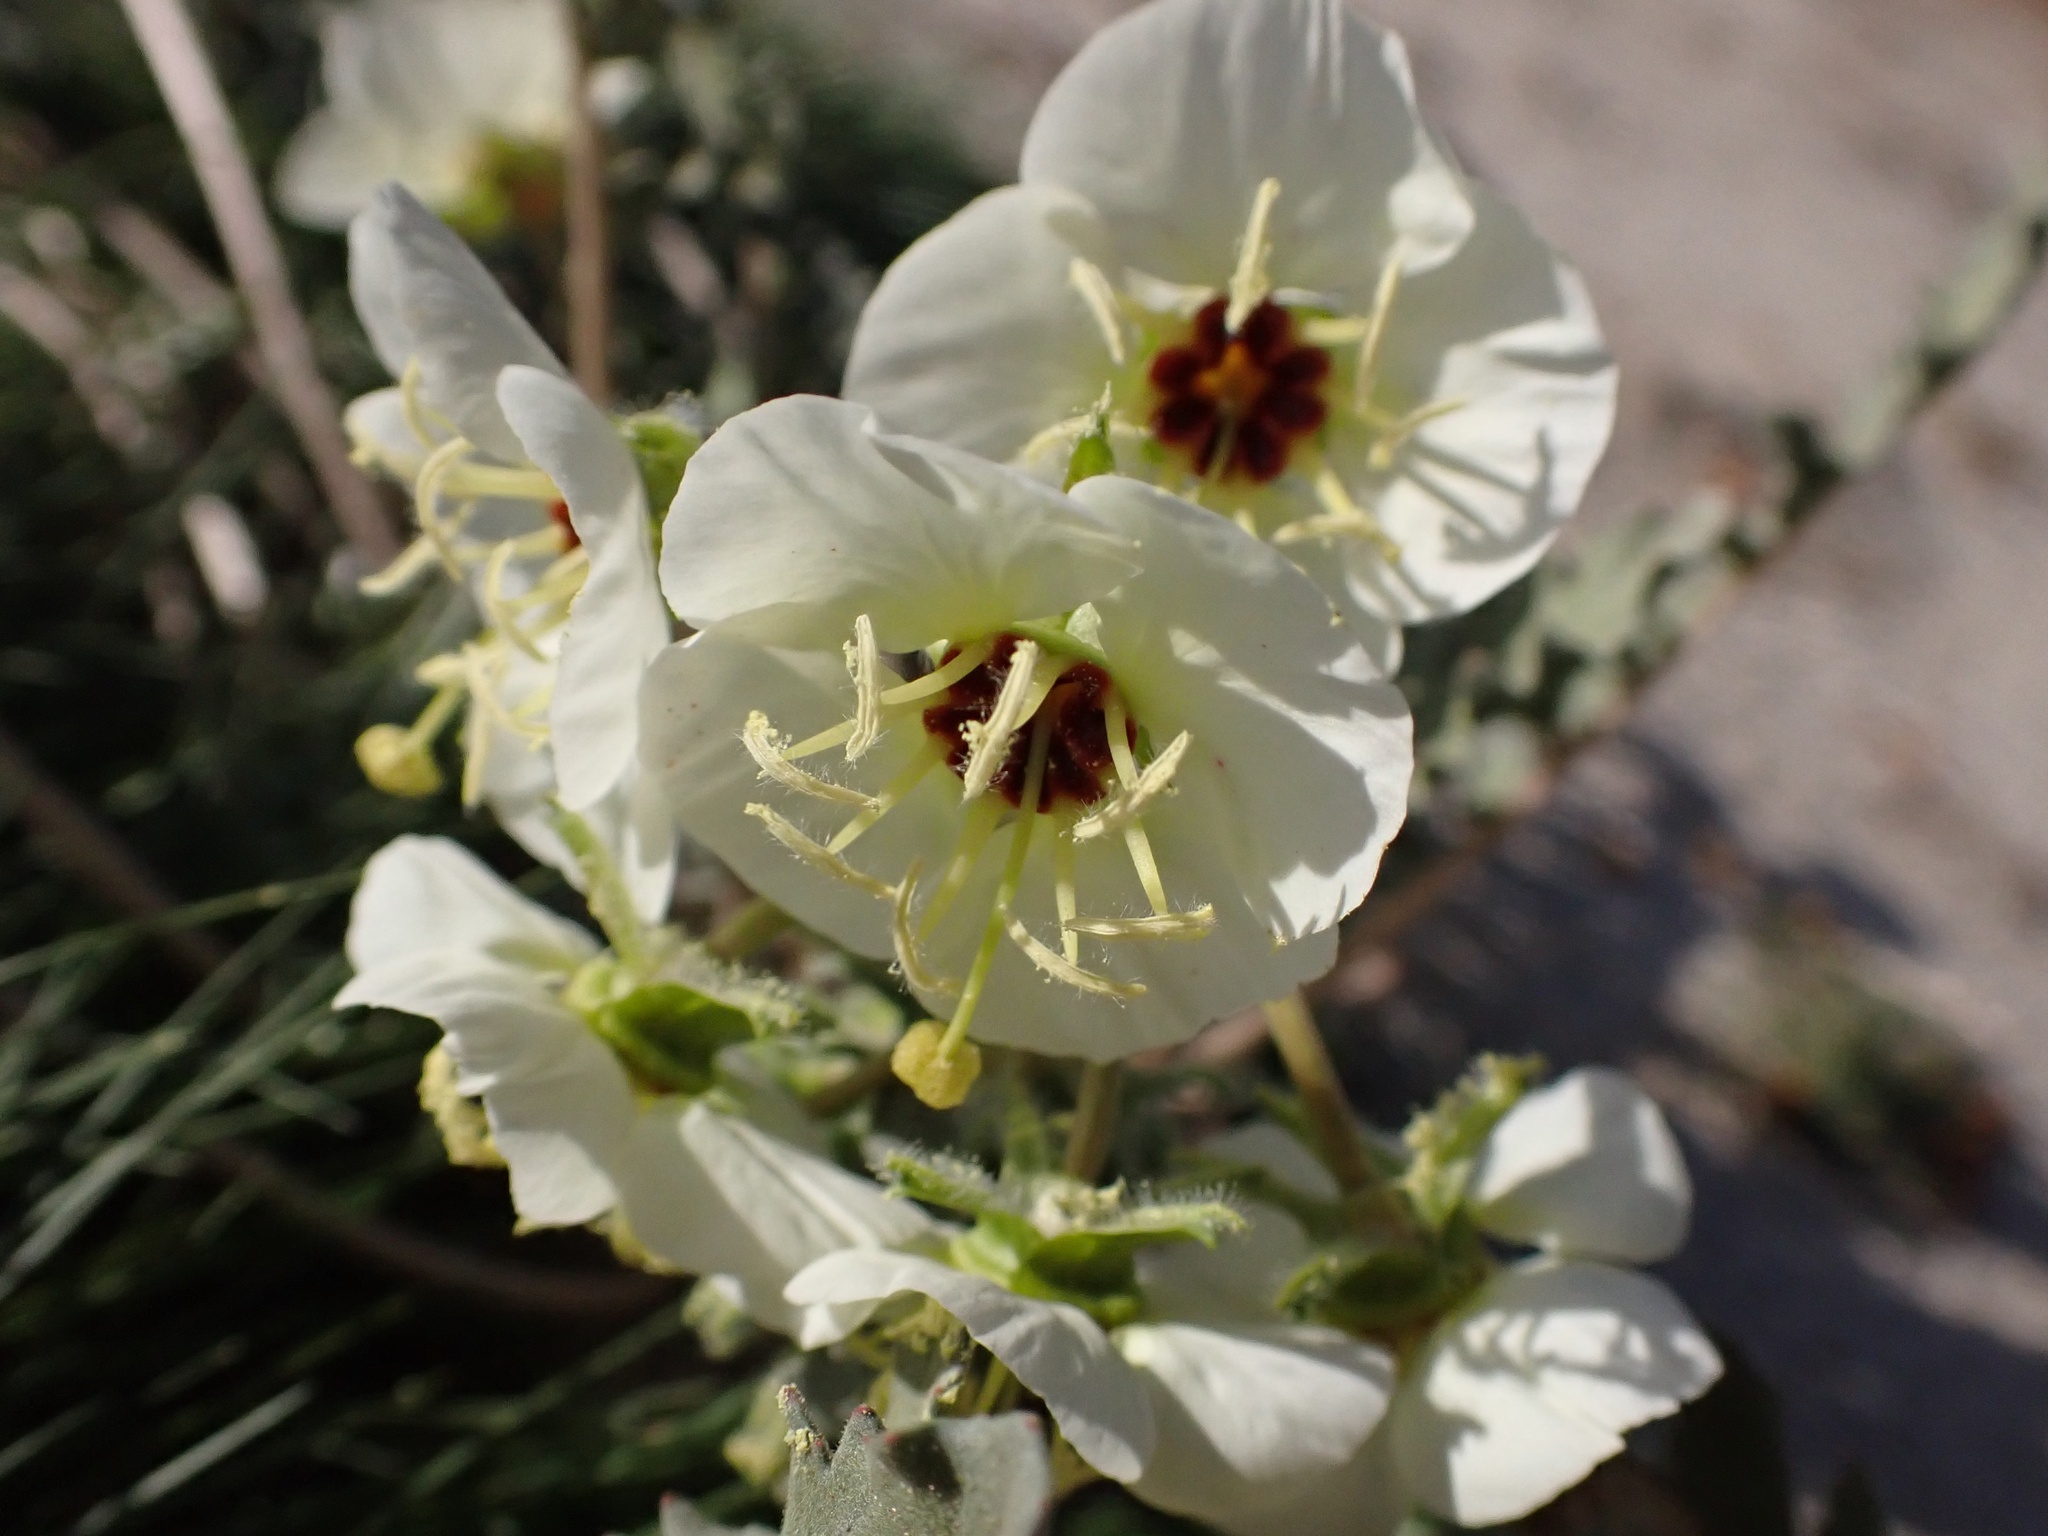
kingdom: Plantae
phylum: Tracheophyta
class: Magnoliopsida
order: Myrtales
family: Onagraceae
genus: Chylismia
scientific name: Chylismia claviformis
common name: Browneyes
